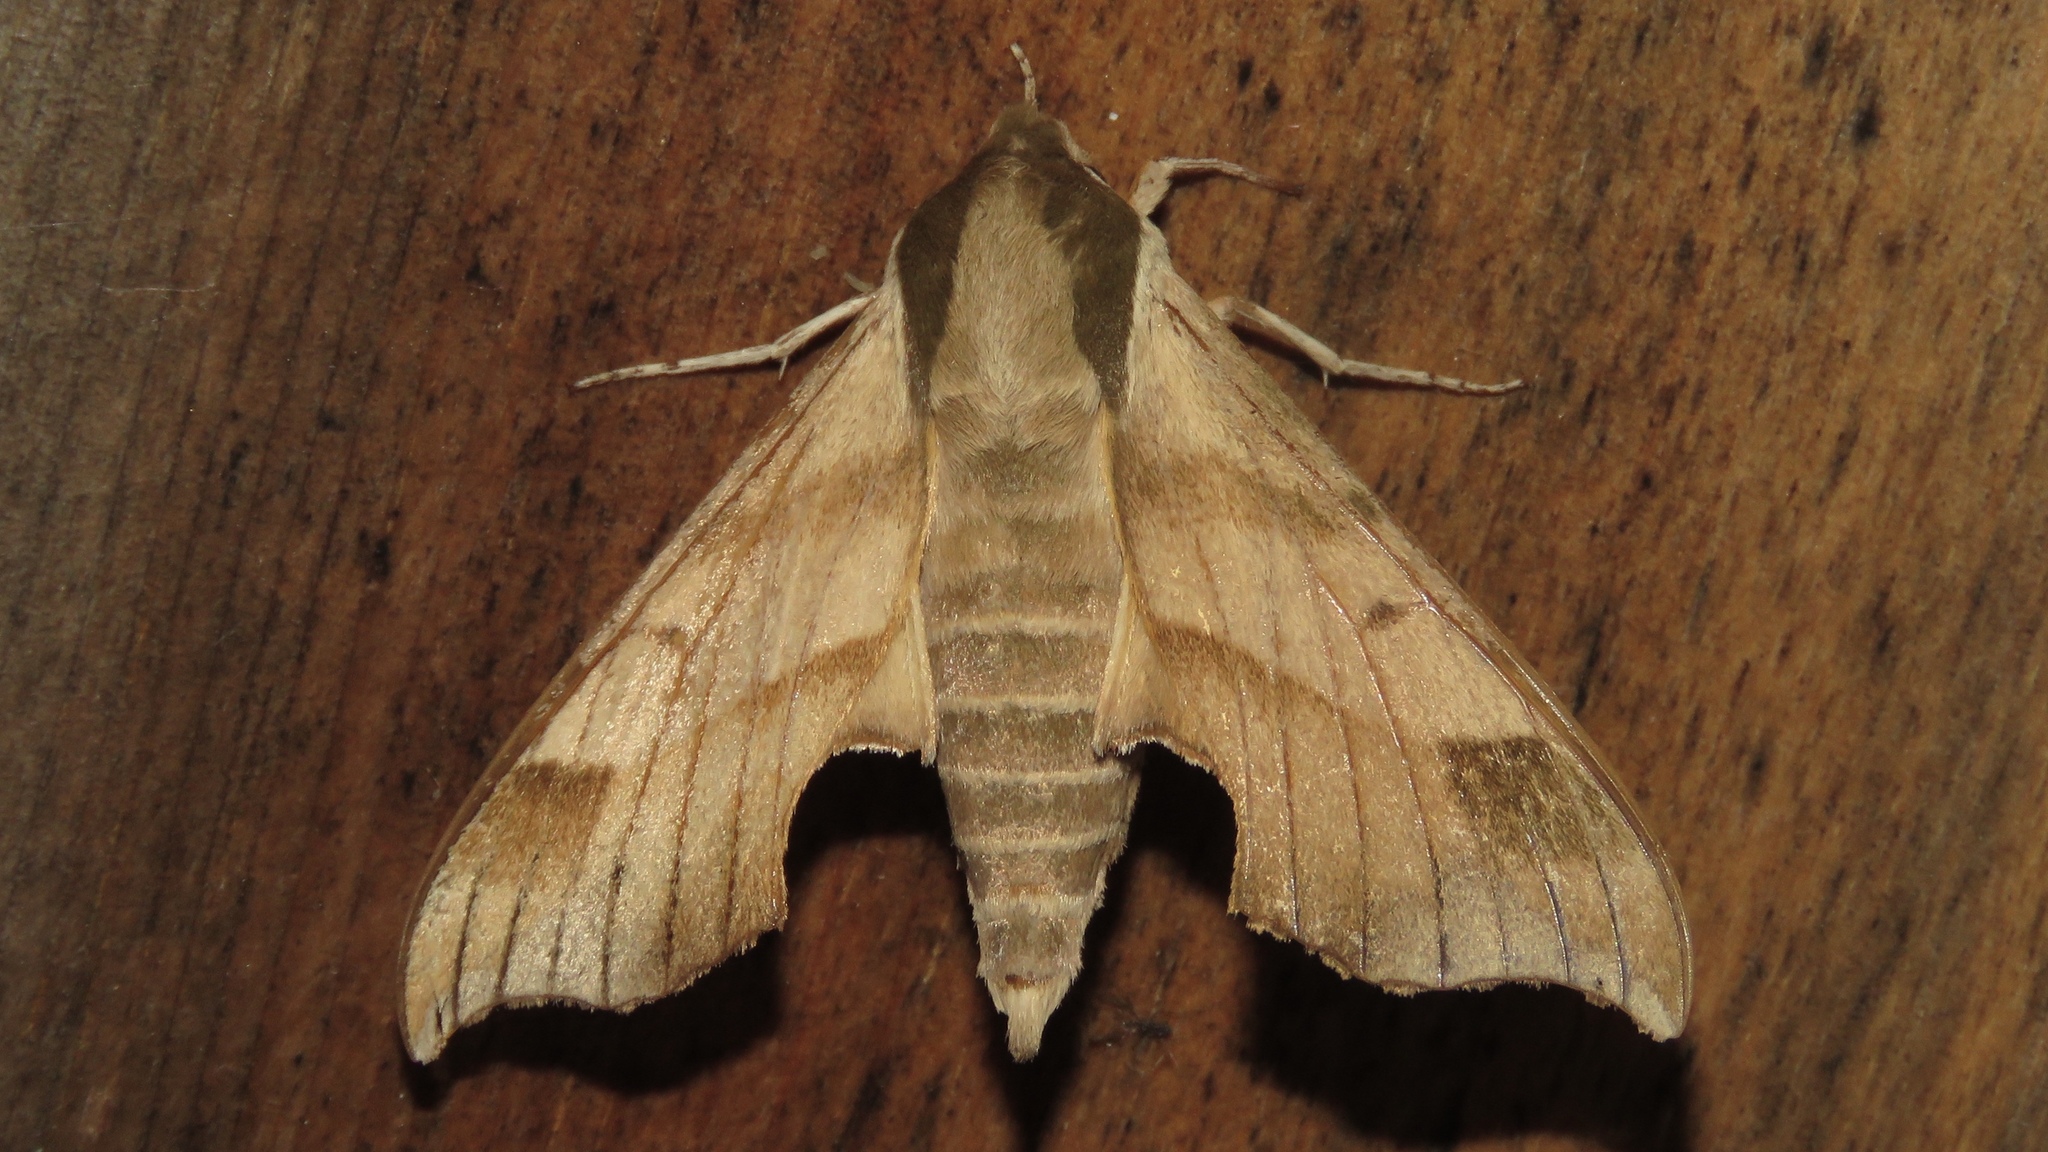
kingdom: Animalia
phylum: Arthropoda
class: Insecta
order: Lepidoptera
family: Sphingidae
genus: Darapsa
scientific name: Darapsa myron
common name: Hog sphinx
